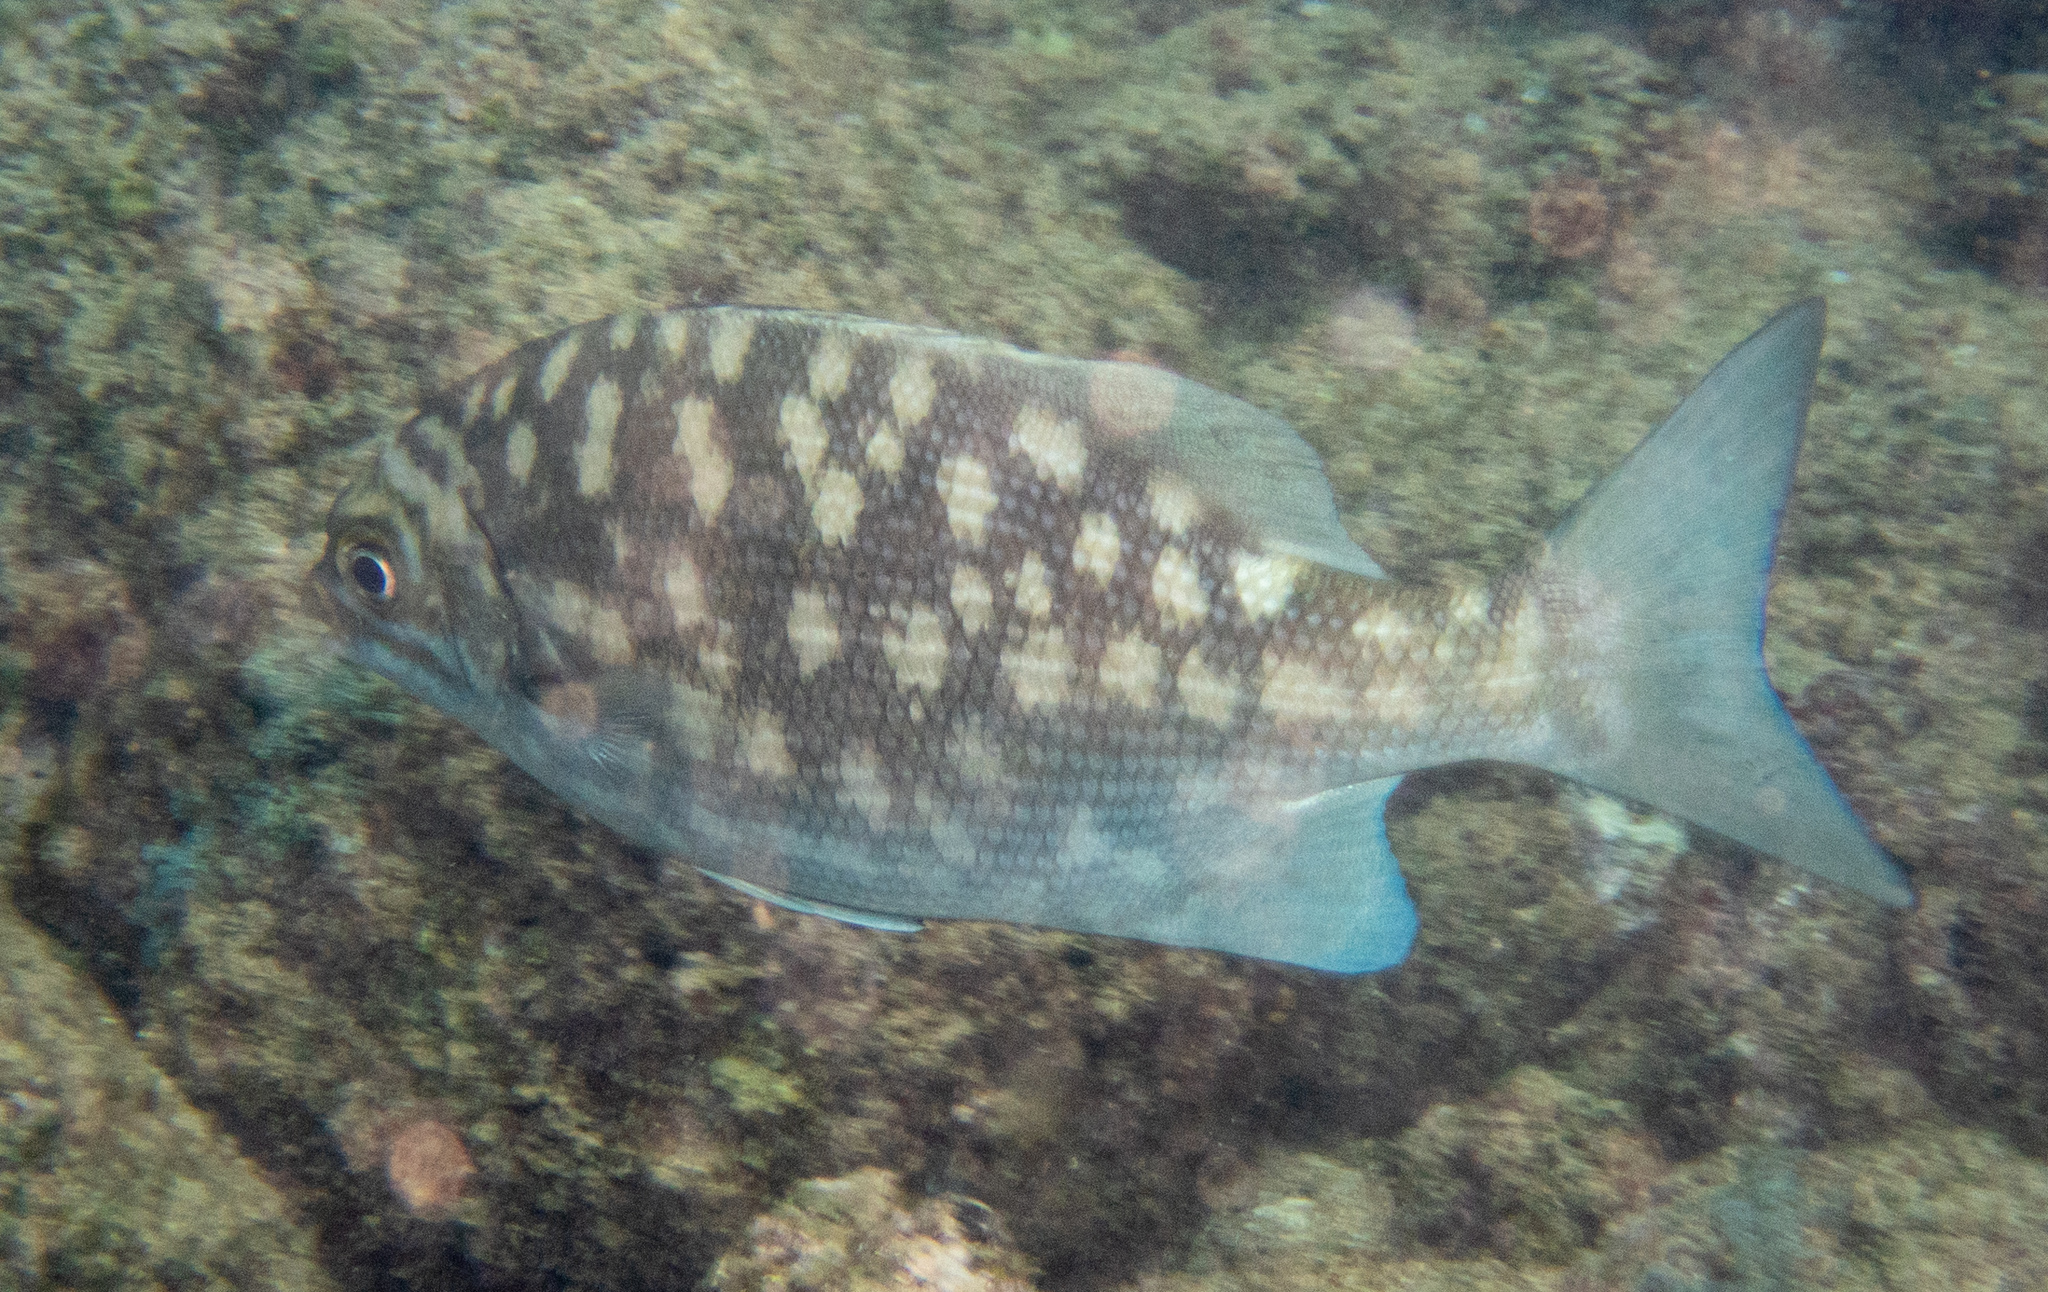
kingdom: Animalia
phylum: Chordata
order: Perciformes
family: Kyphosidae
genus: Kyphosus
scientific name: Kyphosus cinerascens
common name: Topsail drummer
